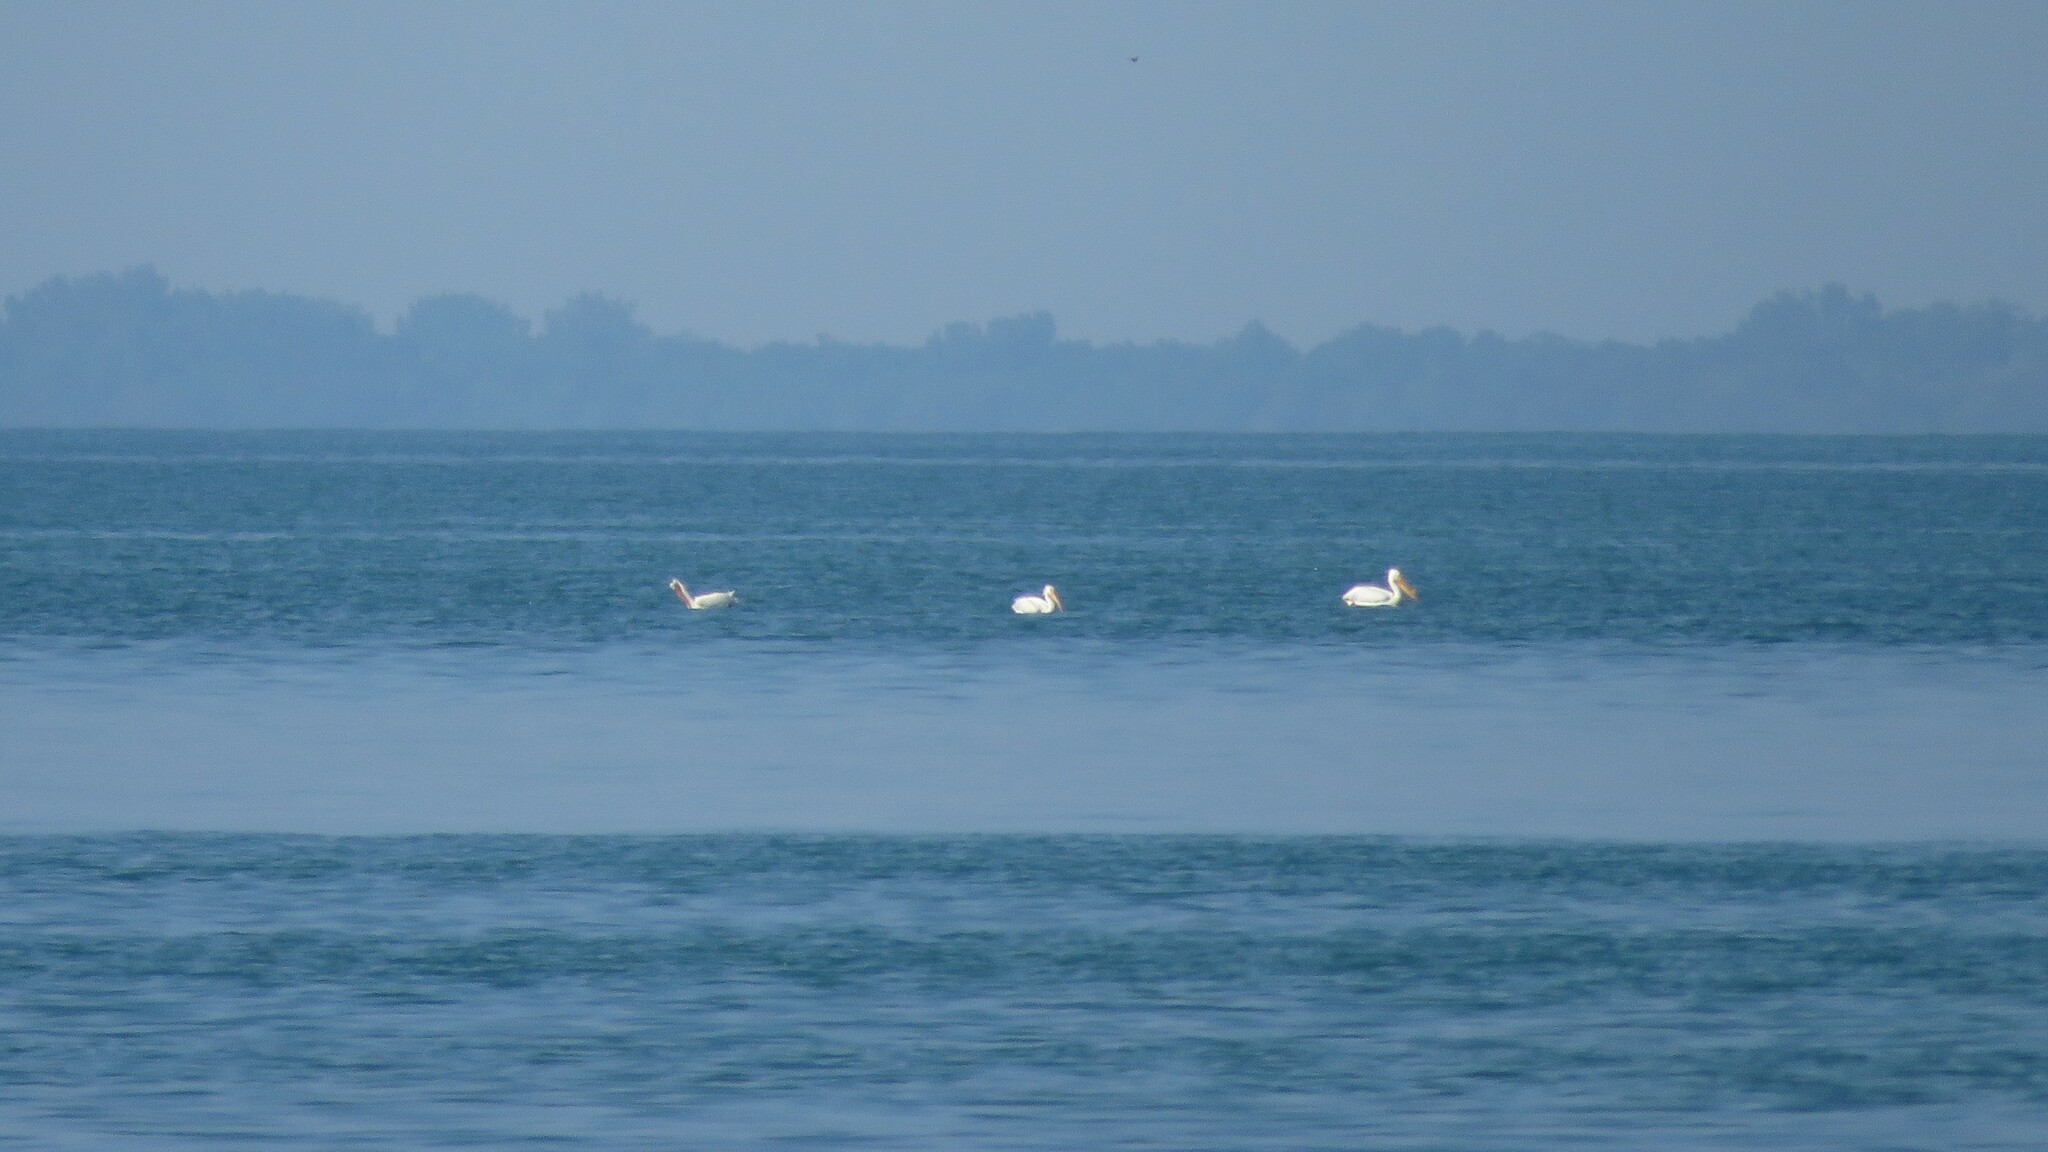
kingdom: Animalia
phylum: Chordata
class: Aves
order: Pelecaniformes
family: Pelecanidae
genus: Pelecanus
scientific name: Pelecanus erythrorhynchos
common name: American white pelican
